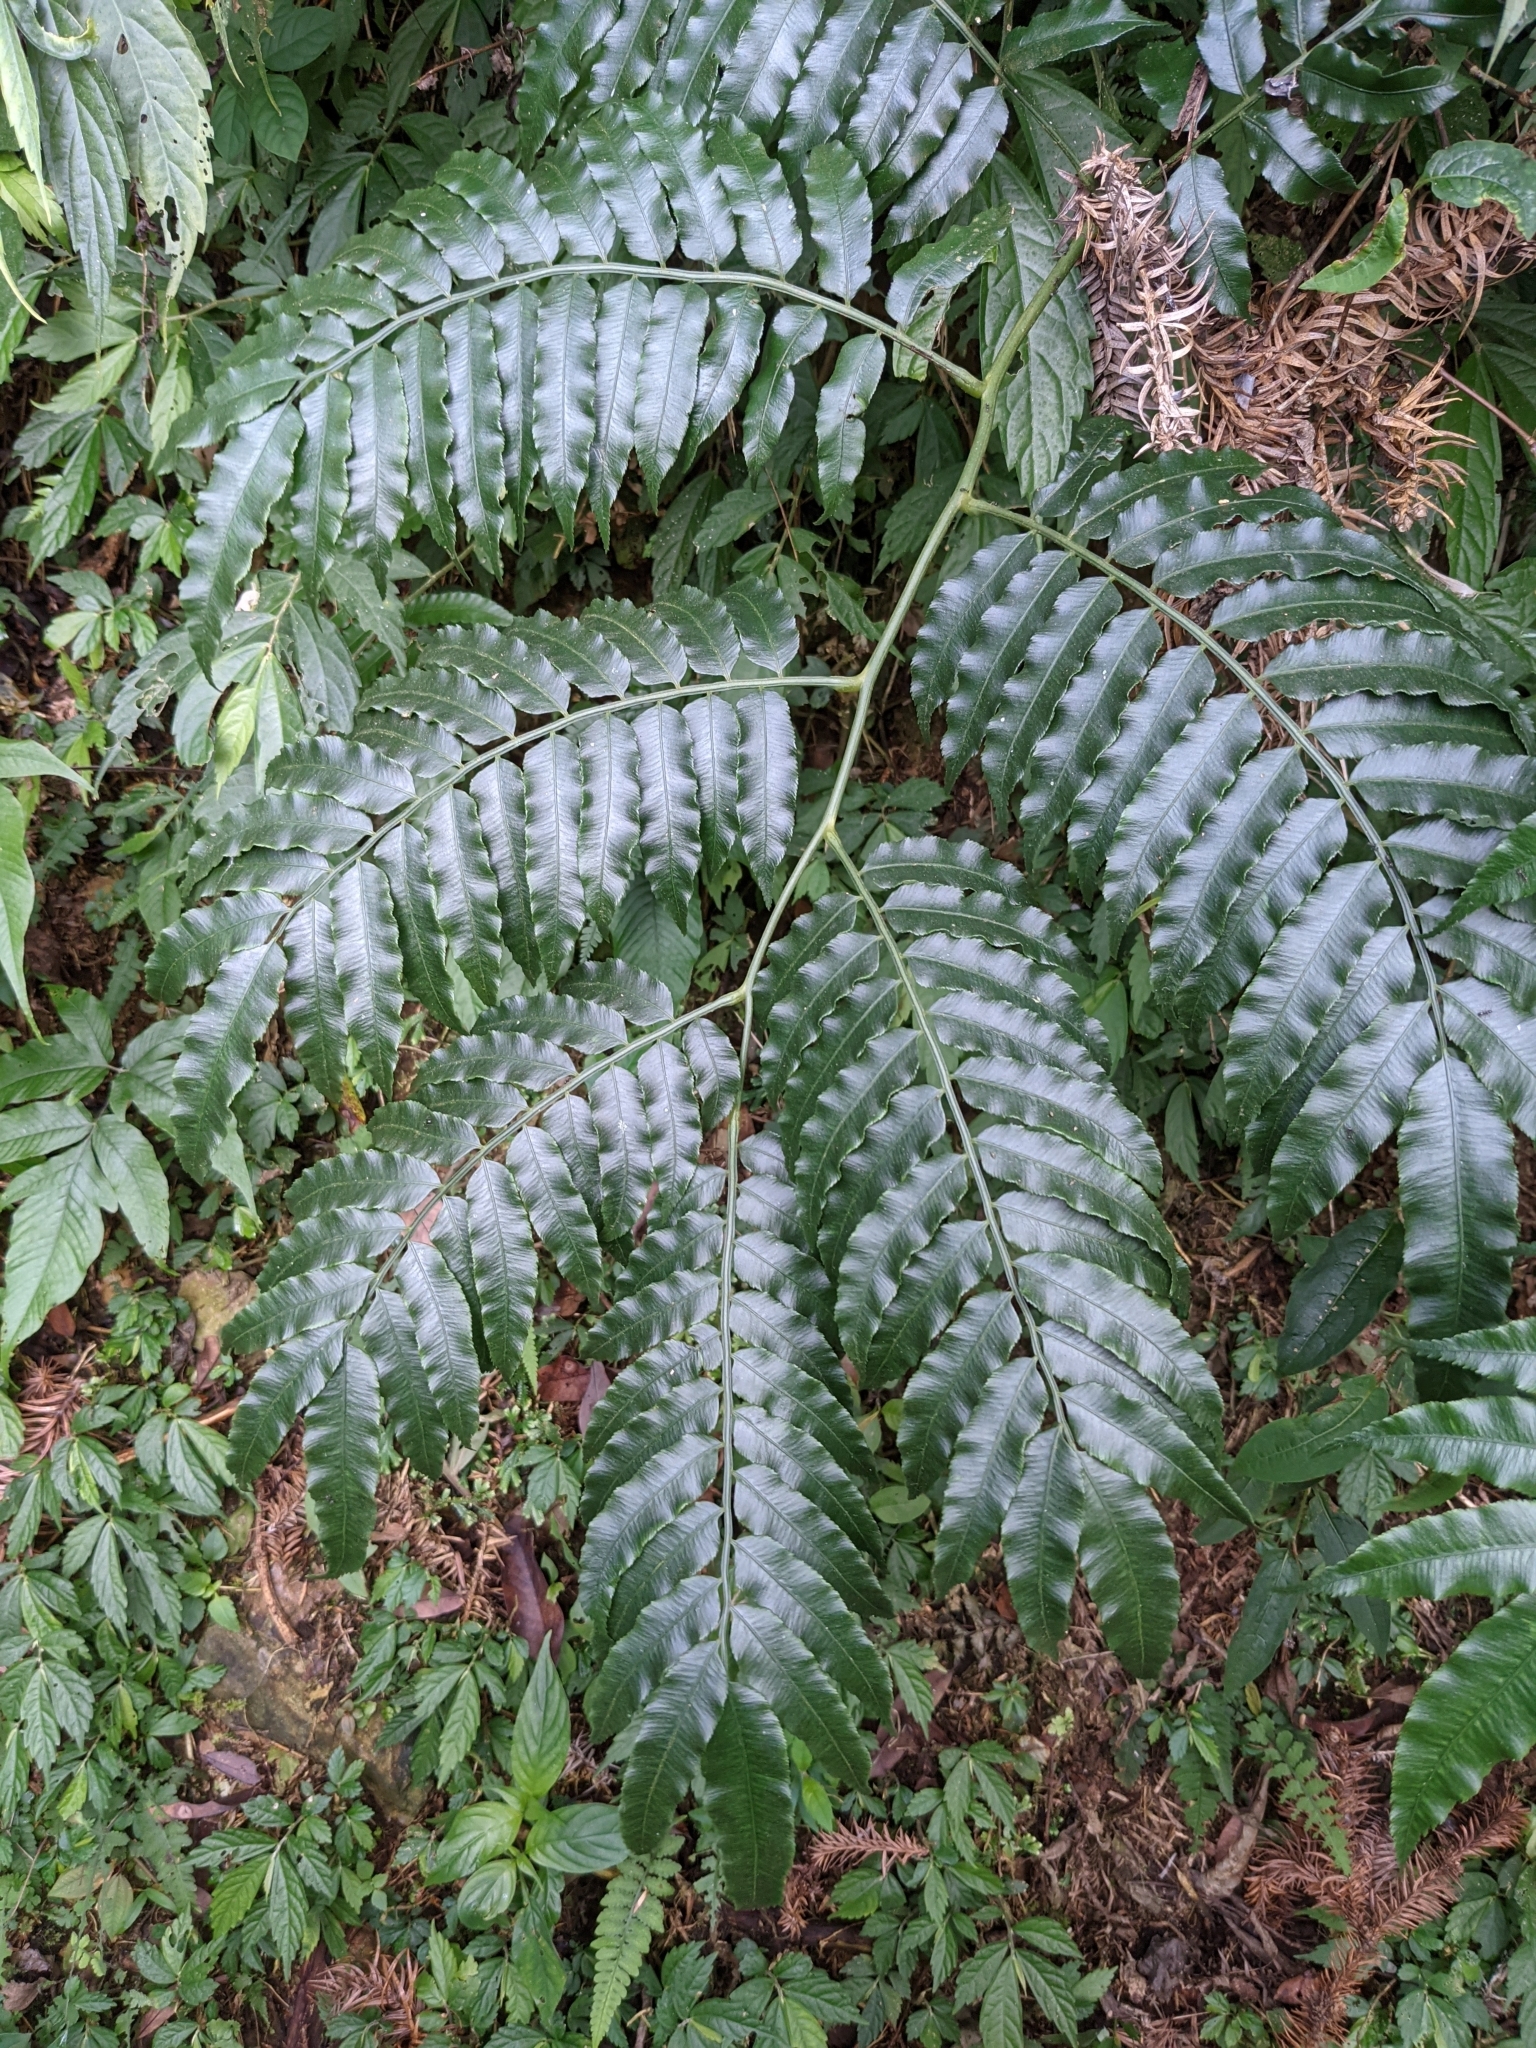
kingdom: Plantae
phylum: Tracheophyta
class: Polypodiopsida
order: Marattiales
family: Marattiaceae
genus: Angiopteris
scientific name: Angiopteris lygodiifolia
